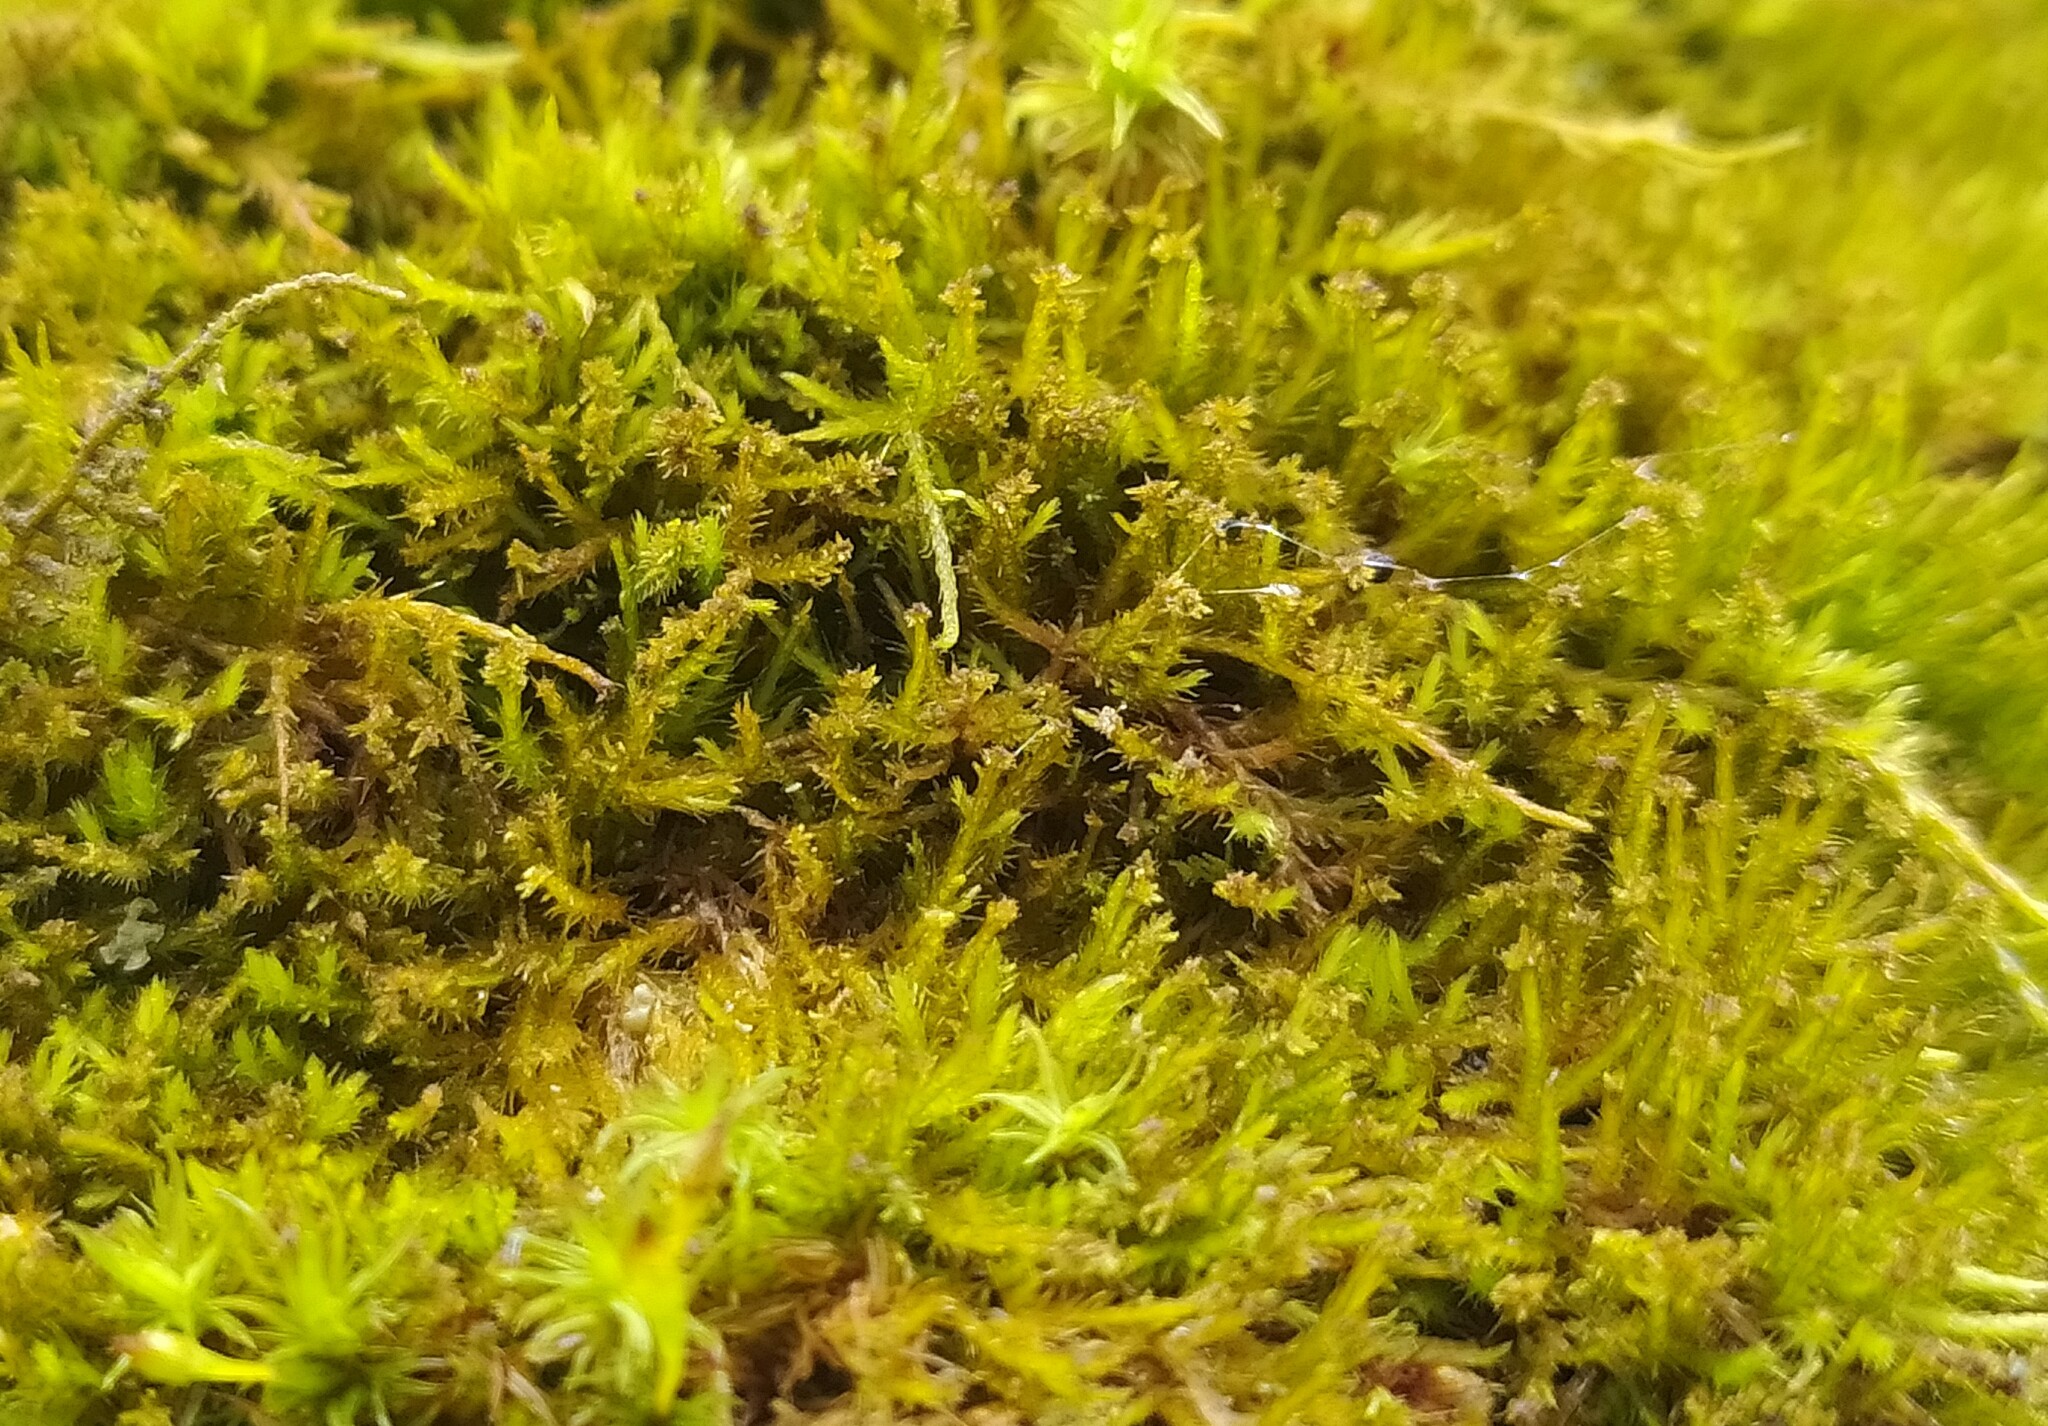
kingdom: Plantae
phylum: Bryophyta
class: Bryopsida
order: Hypnales
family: Pseudoleskeellaceae
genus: Pseudoleskeella
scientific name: Pseudoleskeella nervosa
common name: Nerved leske's moss
